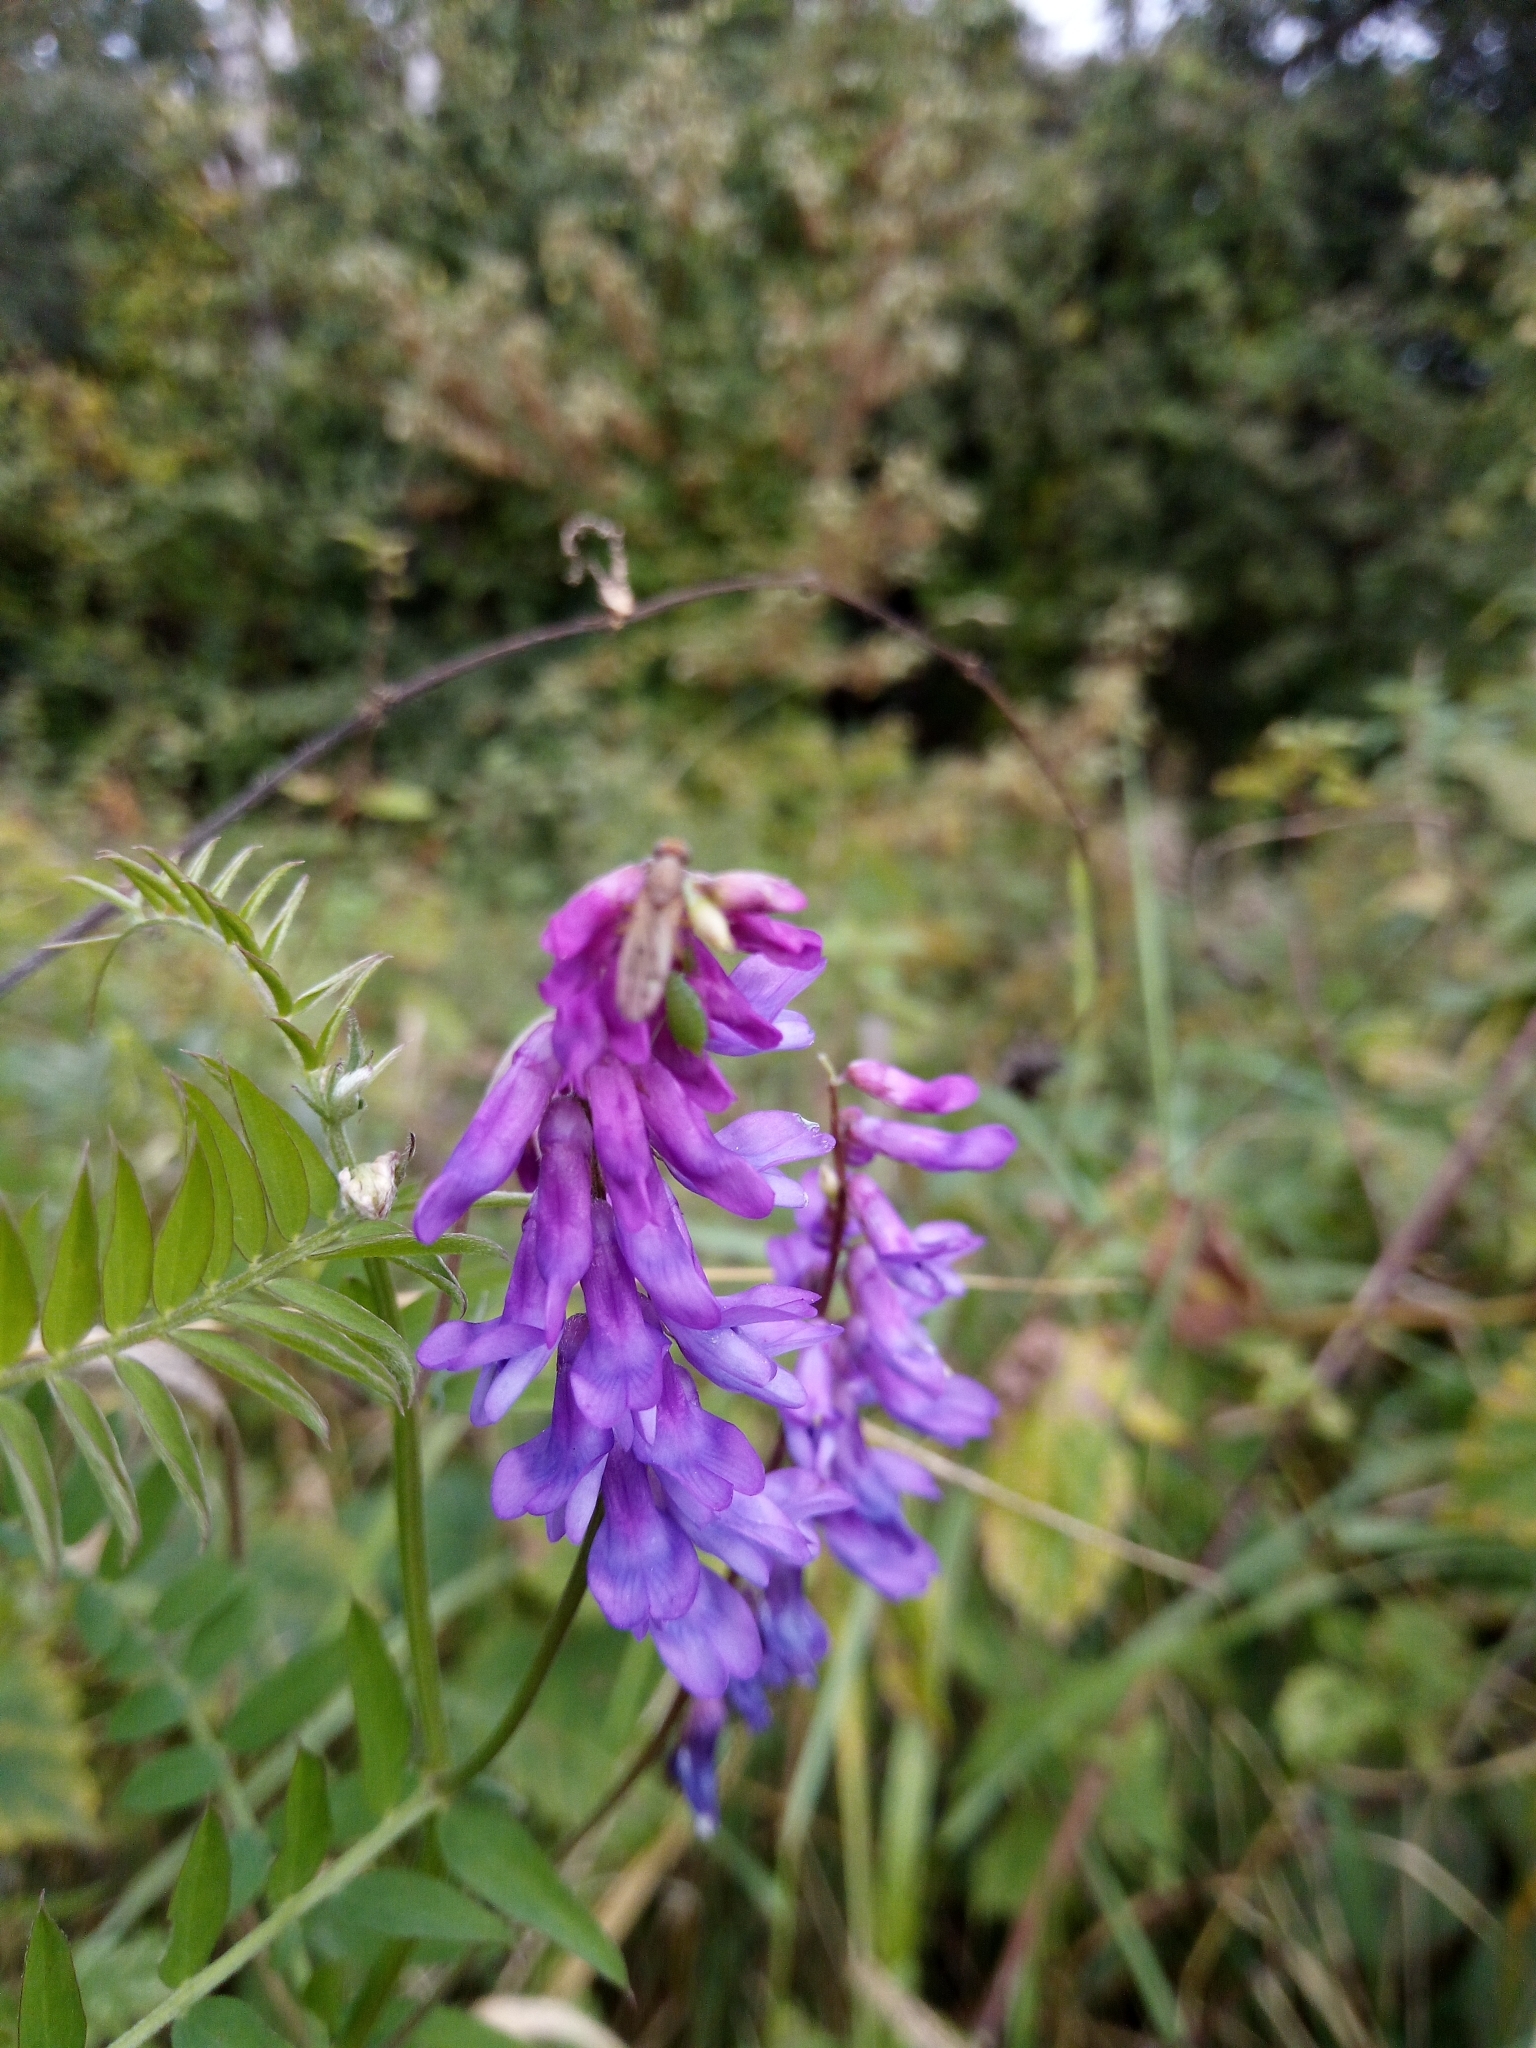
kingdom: Plantae
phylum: Tracheophyta
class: Magnoliopsida
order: Fabales
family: Fabaceae
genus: Vicia
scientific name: Vicia cracca
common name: Bird vetch
